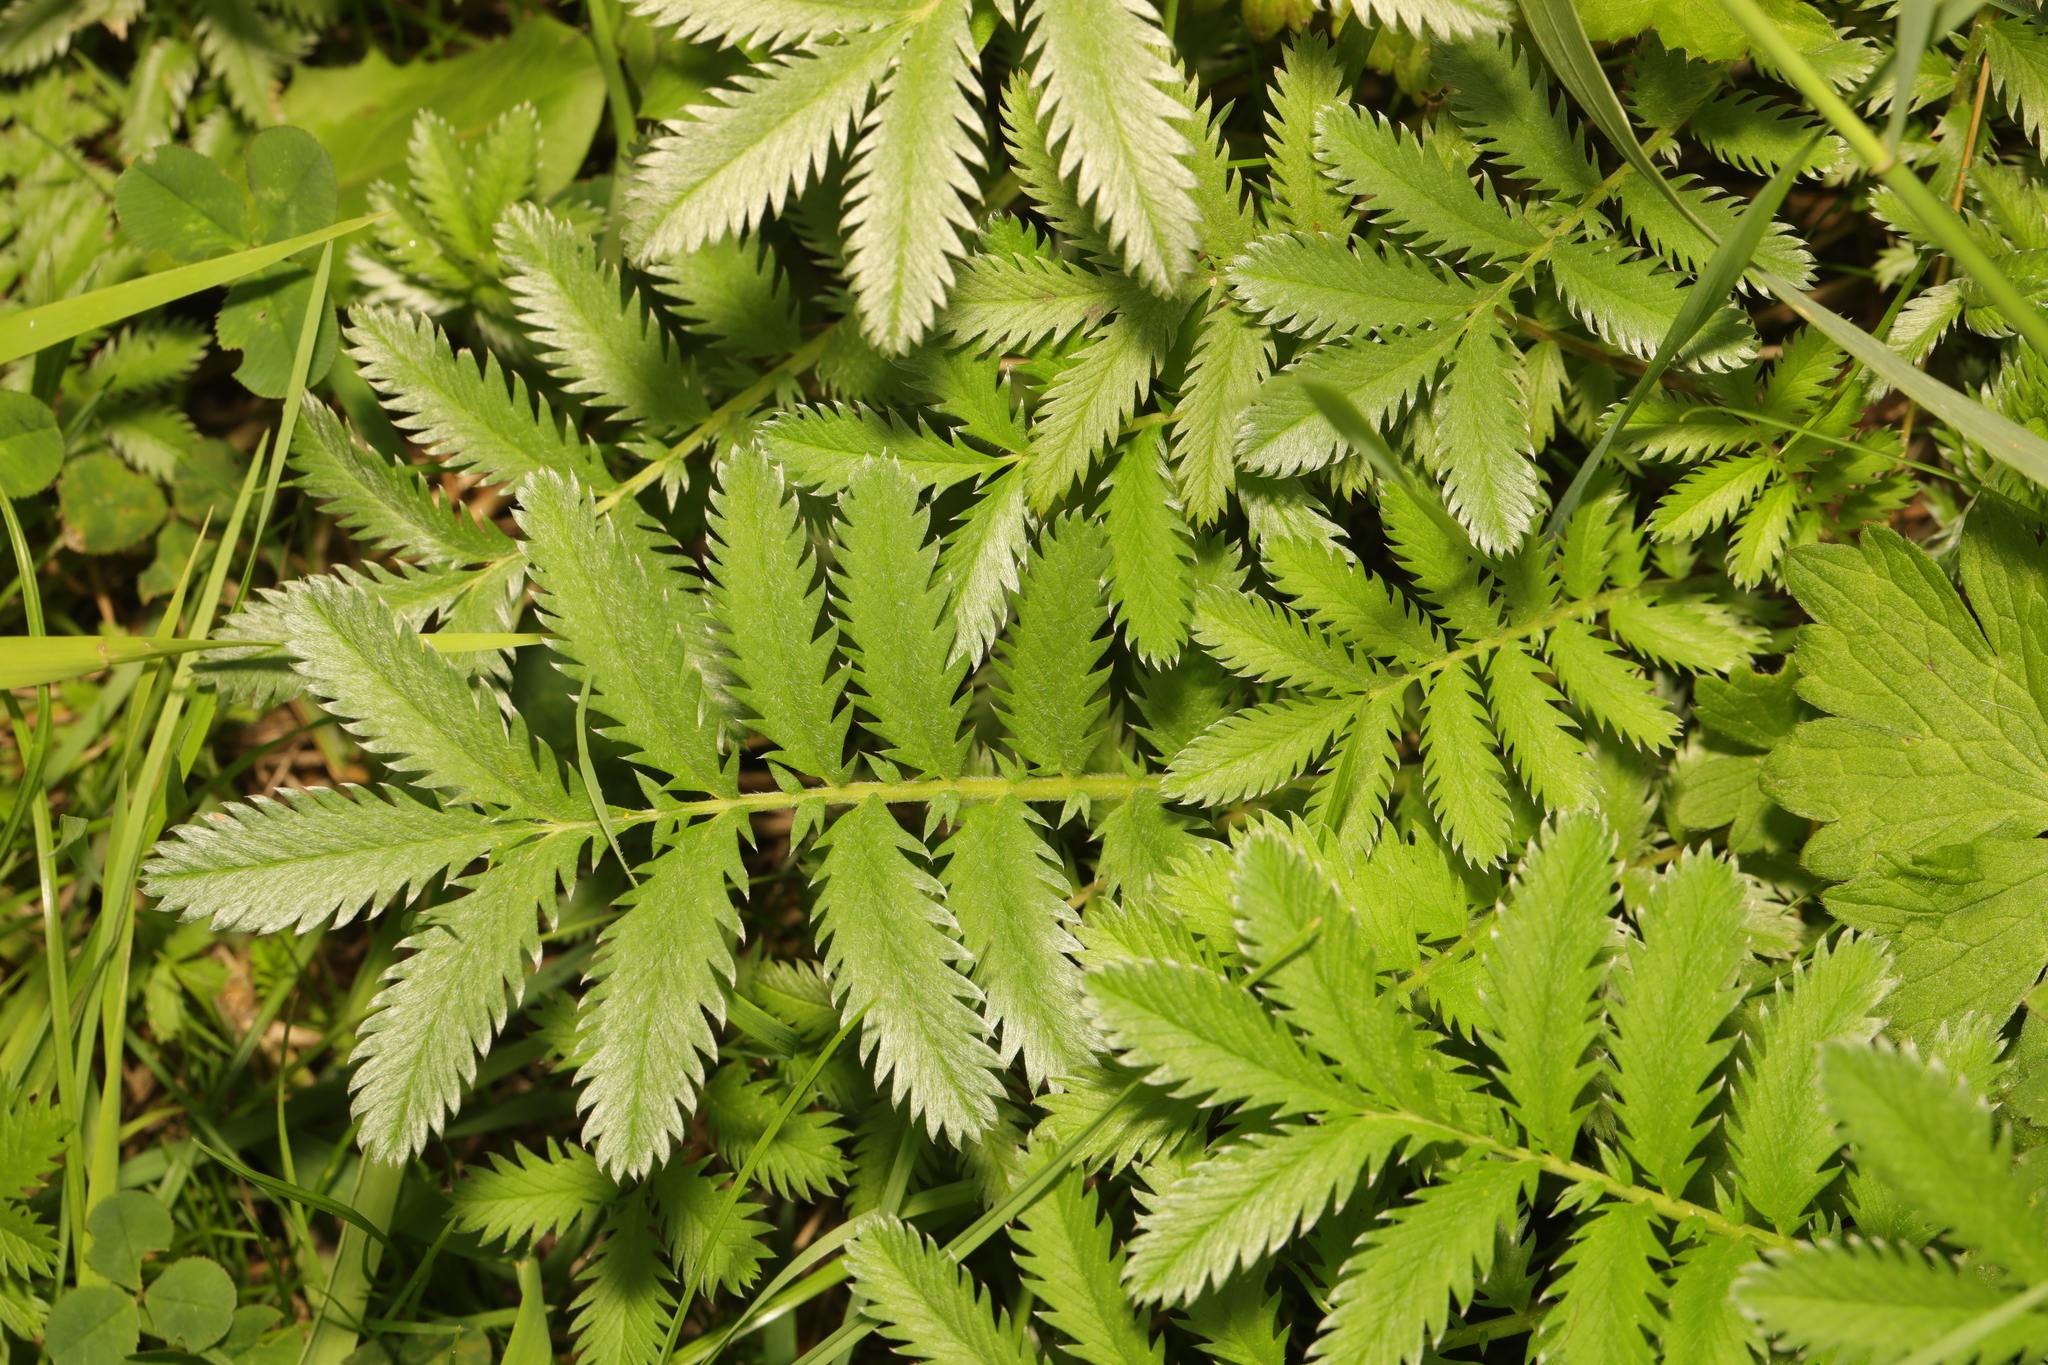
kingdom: Plantae
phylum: Tracheophyta
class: Magnoliopsida
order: Rosales
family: Rosaceae
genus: Argentina
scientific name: Argentina anserina
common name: Common silverweed
